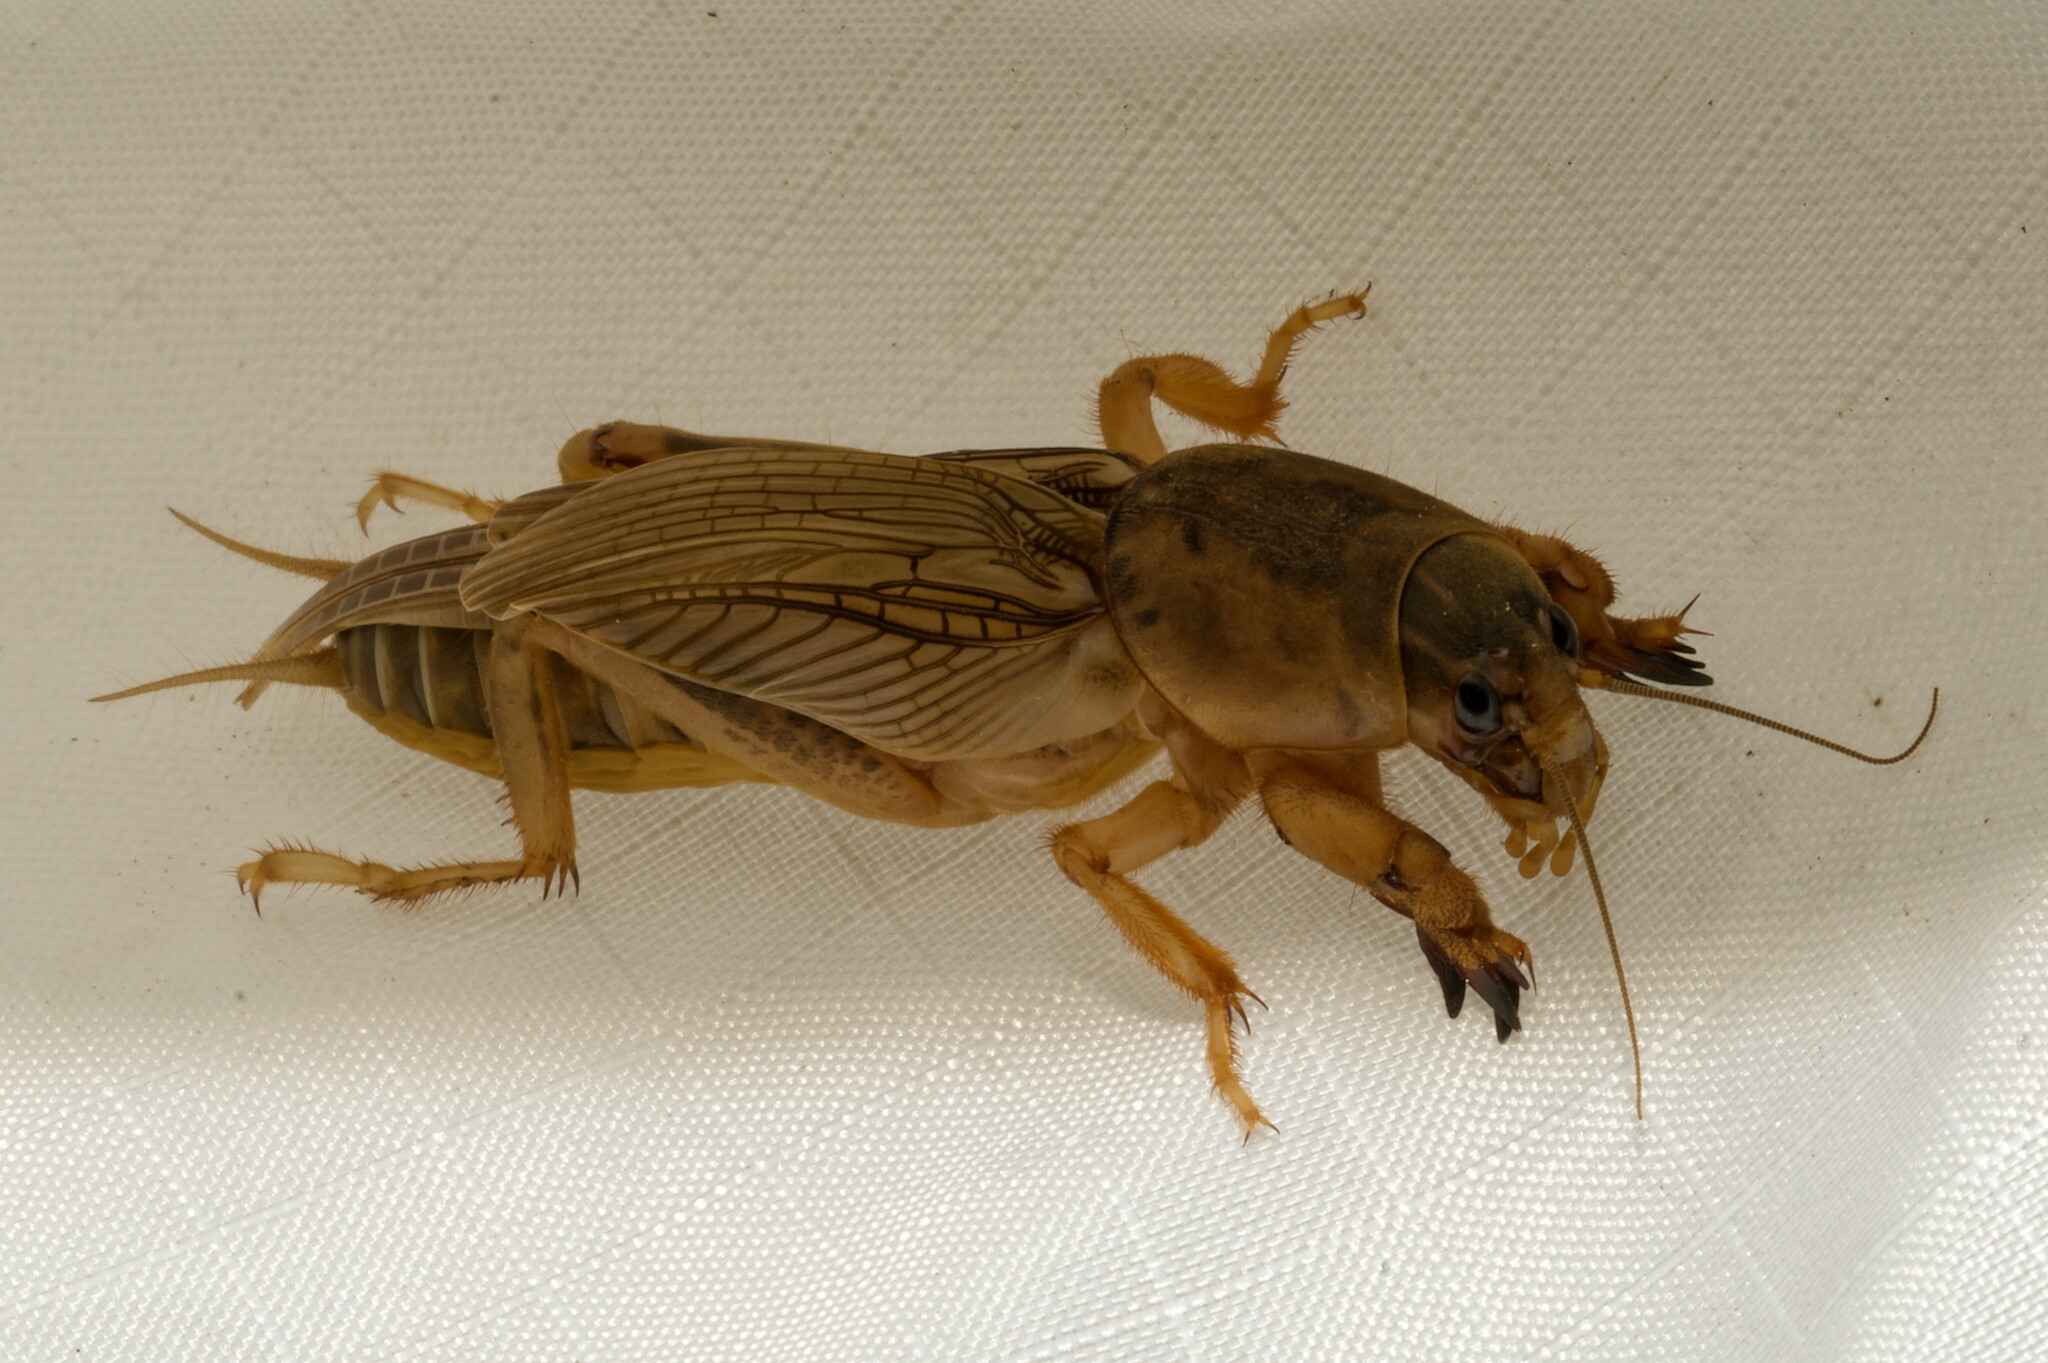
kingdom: Animalia
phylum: Arthropoda
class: Insecta
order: Orthoptera
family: Gryllotalpidae
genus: Neoscapteriscus
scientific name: Neoscapteriscus vicinus
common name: Tawny mole cricket
